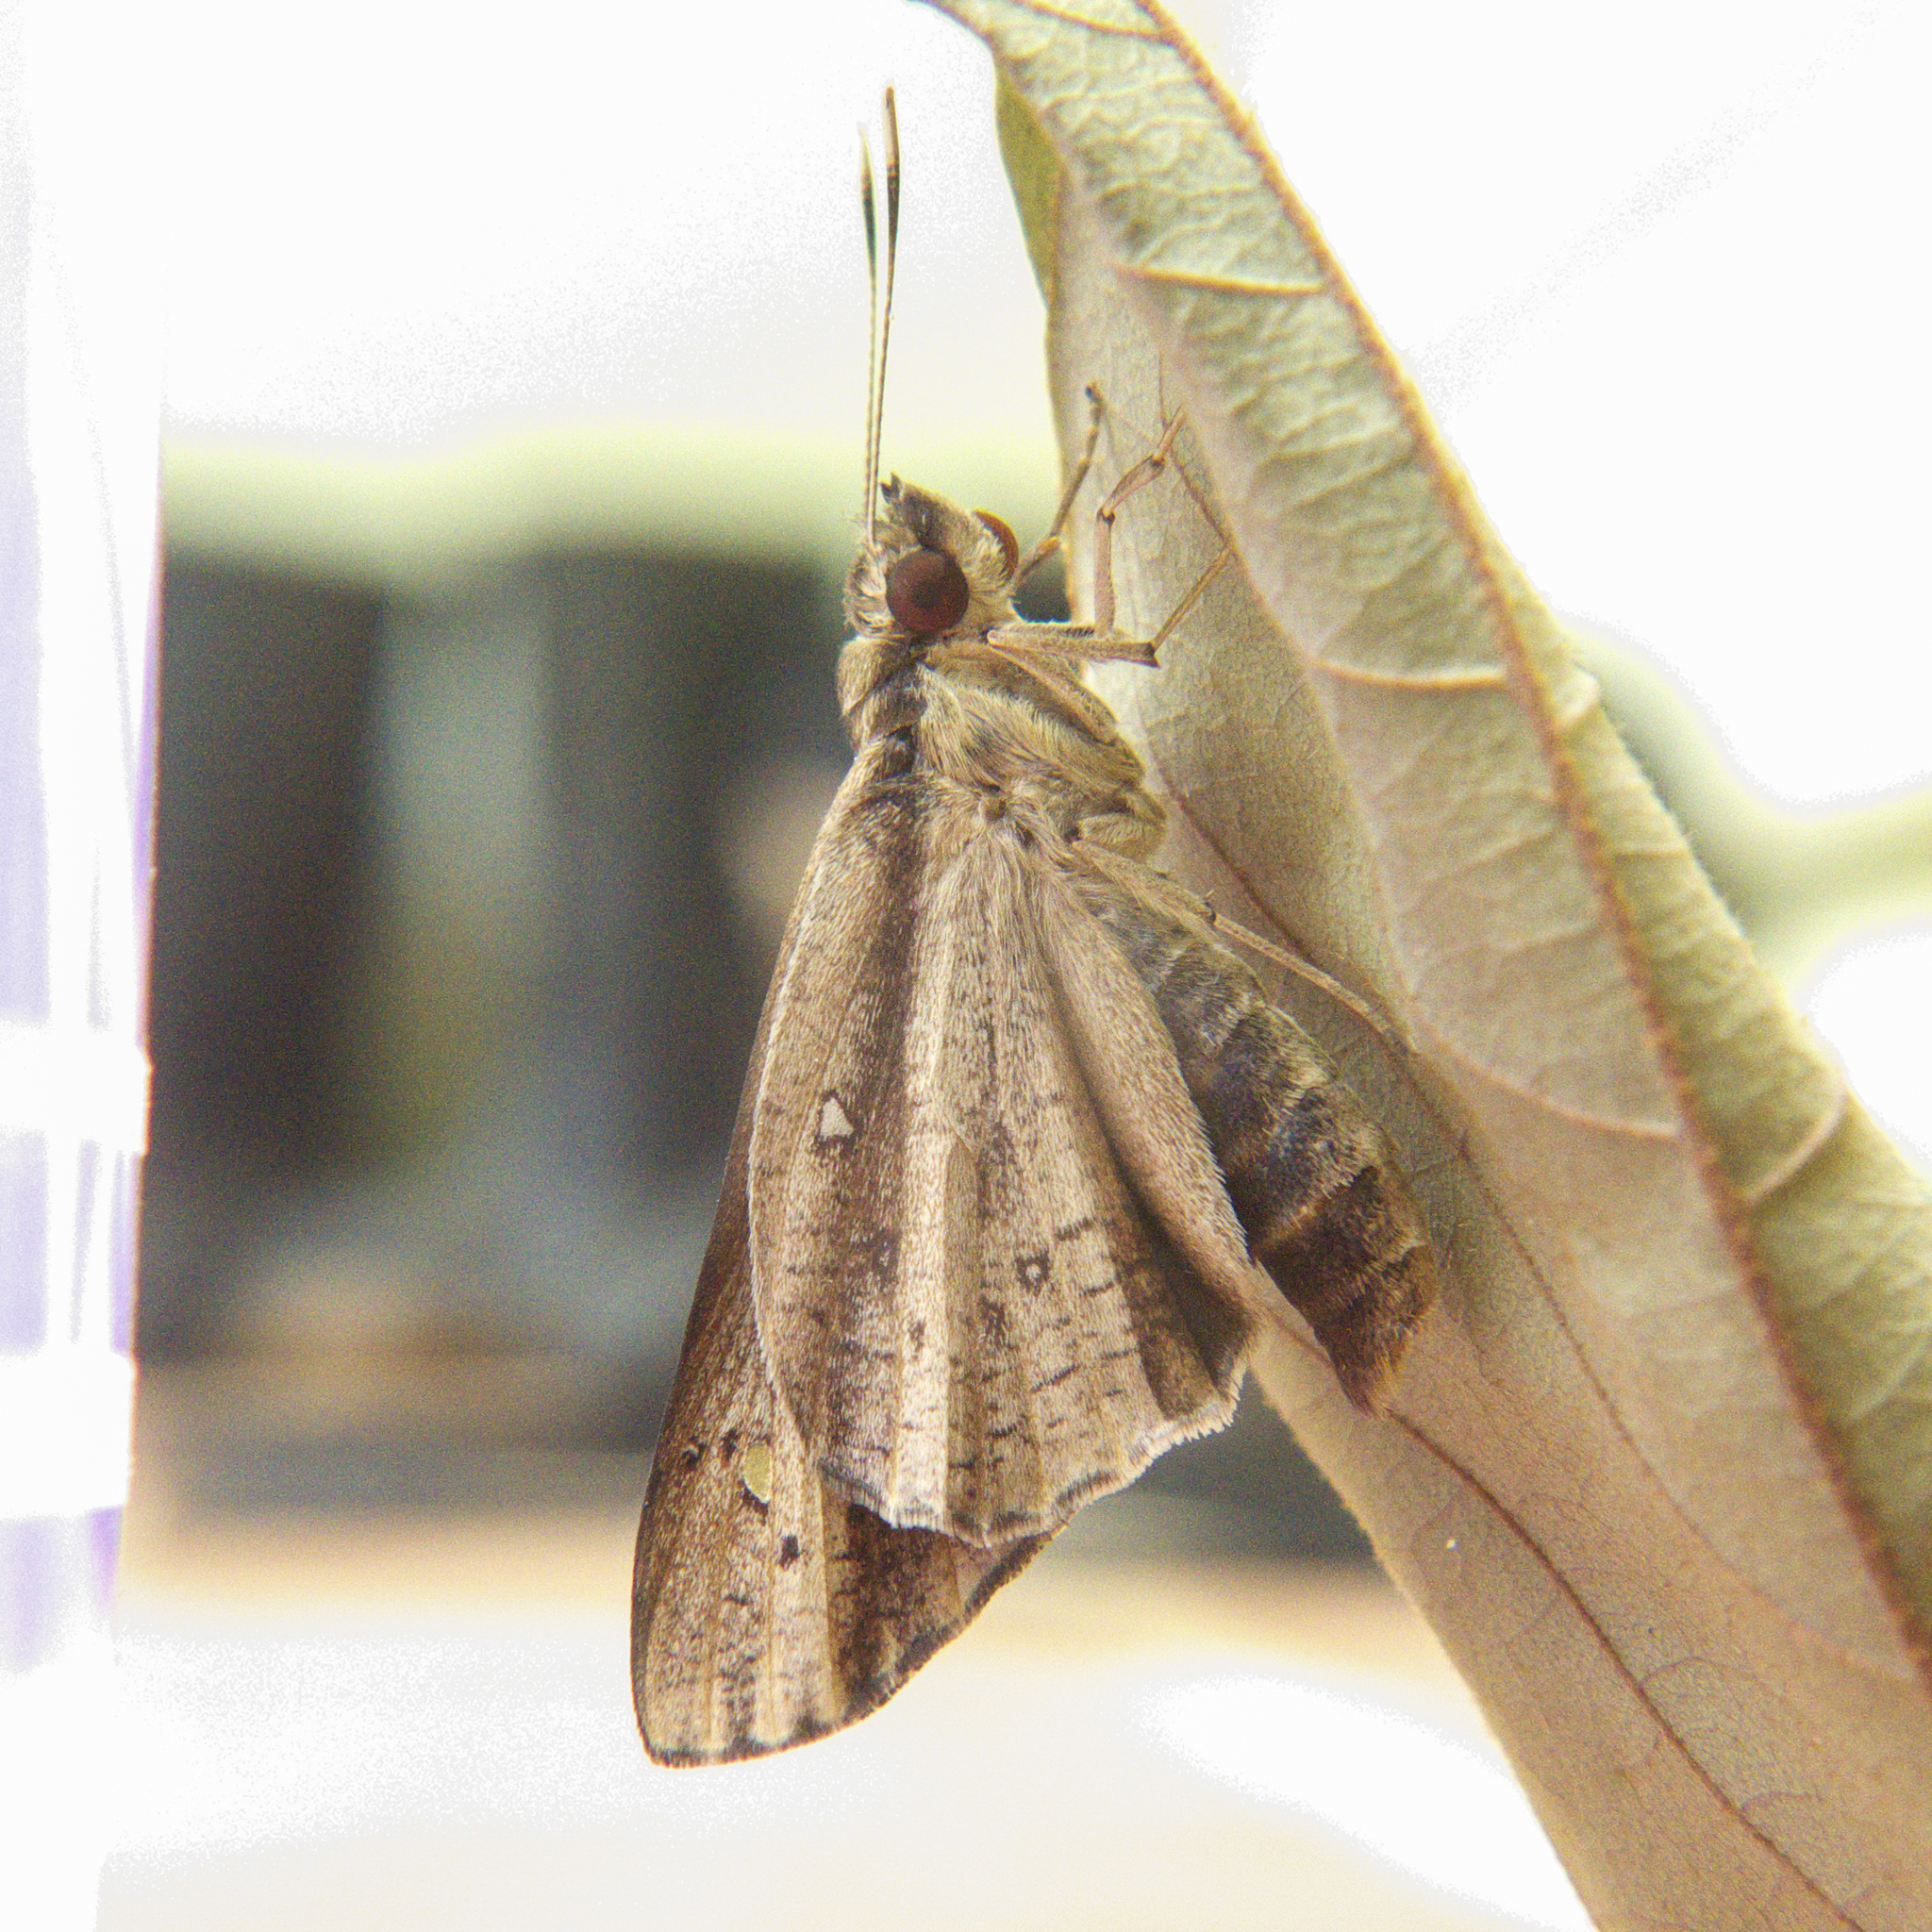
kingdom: Animalia
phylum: Arthropoda
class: Insecta
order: Lepidoptera
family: Hesperiidae
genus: Hidari
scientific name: Hidari bhawani
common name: Veined palmer
